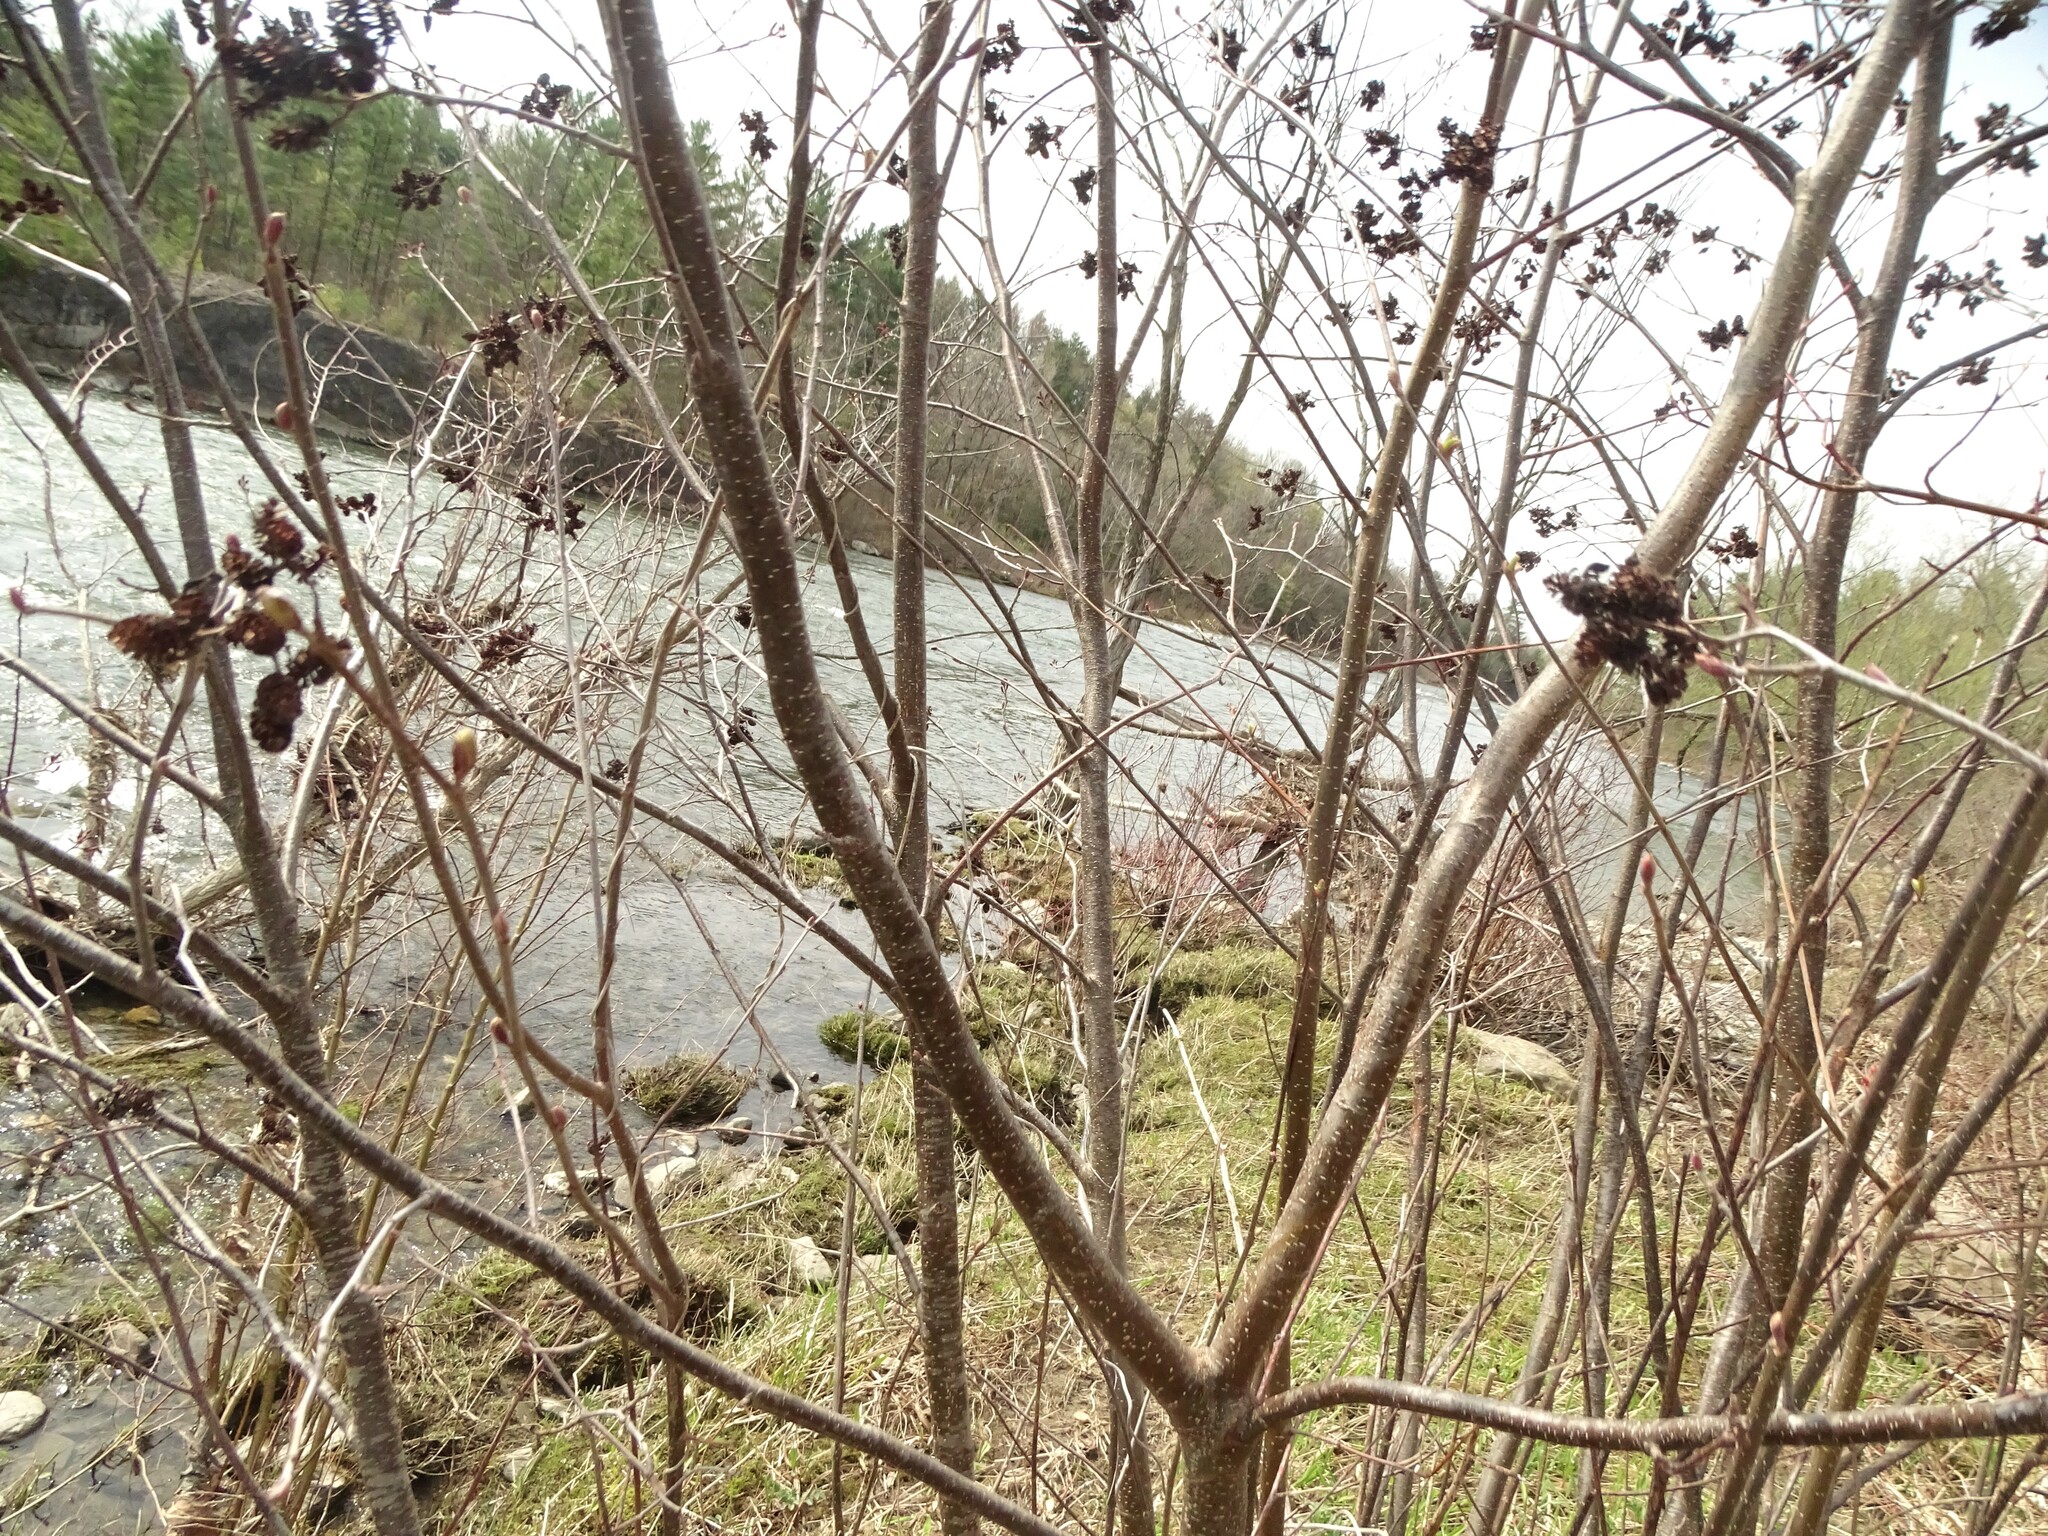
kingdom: Plantae
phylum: Tracheophyta
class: Magnoliopsida
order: Fagales
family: Betulaceae
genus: Alnus
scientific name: Alnus incana
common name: Grey alder
